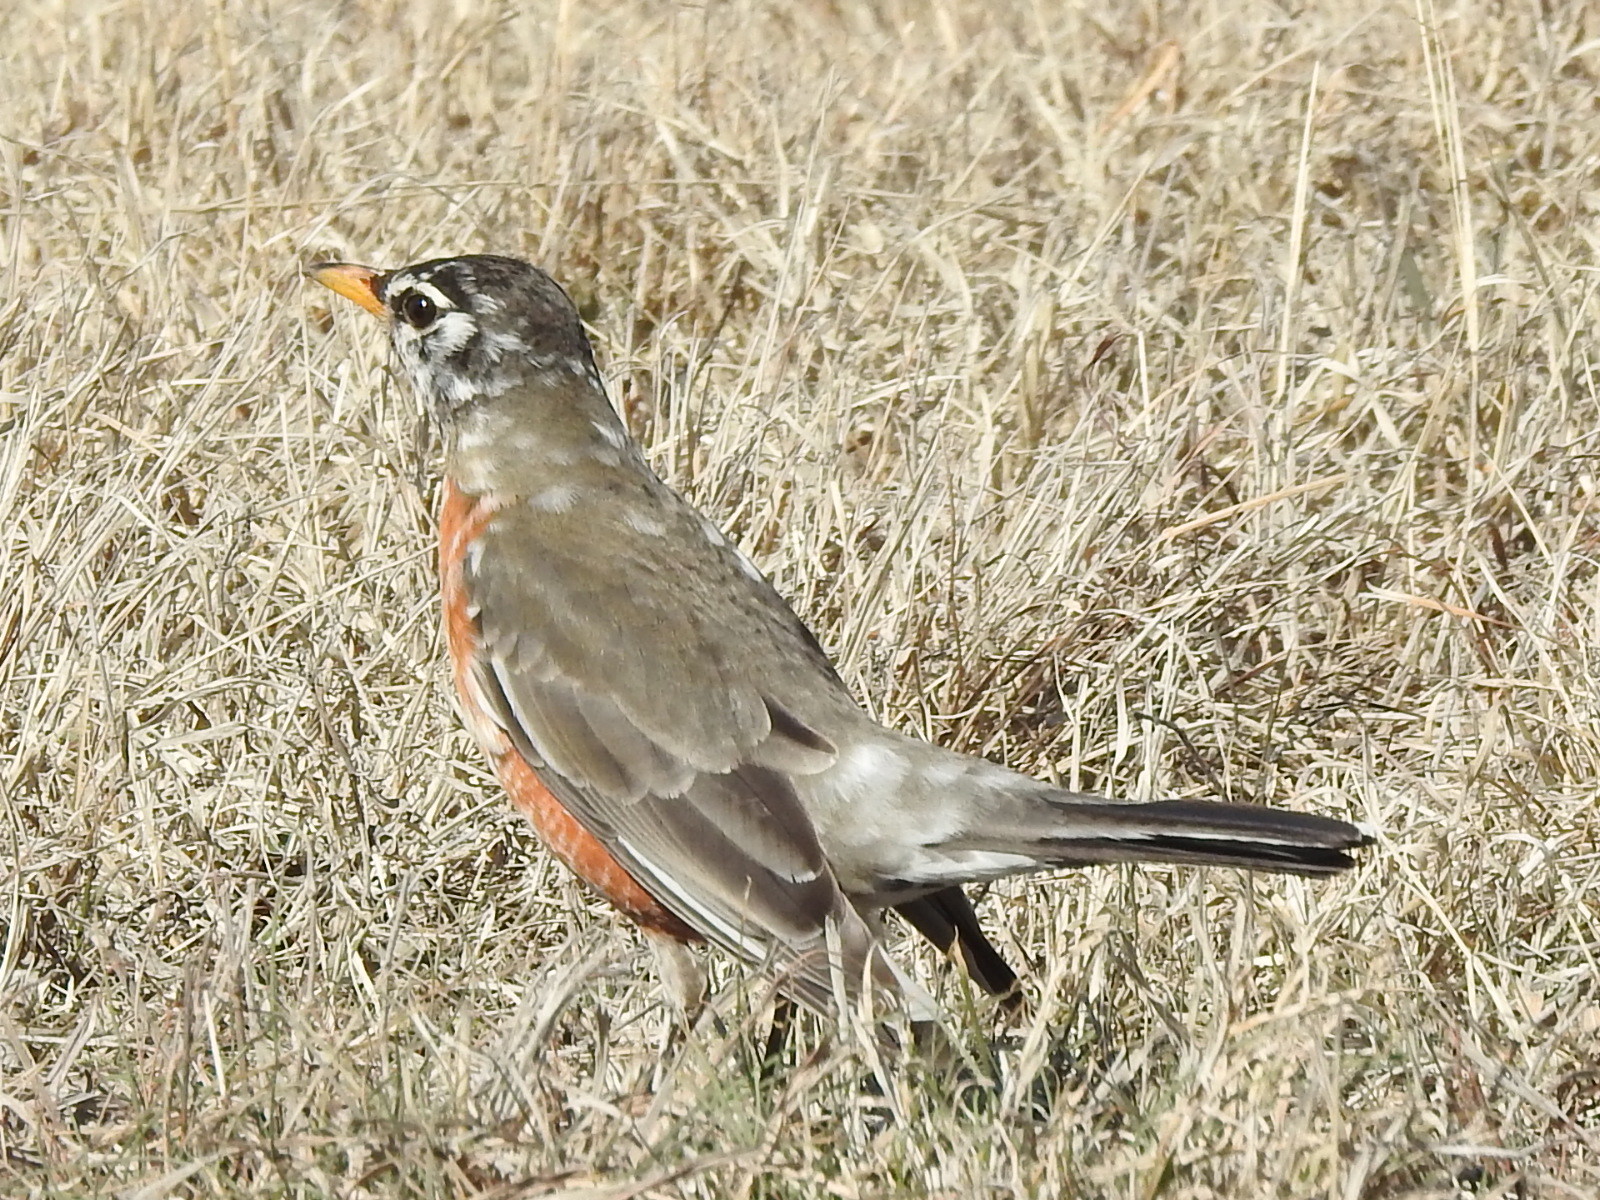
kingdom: Animalia
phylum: Chordata
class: Aves
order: Passeriformes
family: Turdidae
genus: Turdus
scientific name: Turdus migratorius
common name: American robin
